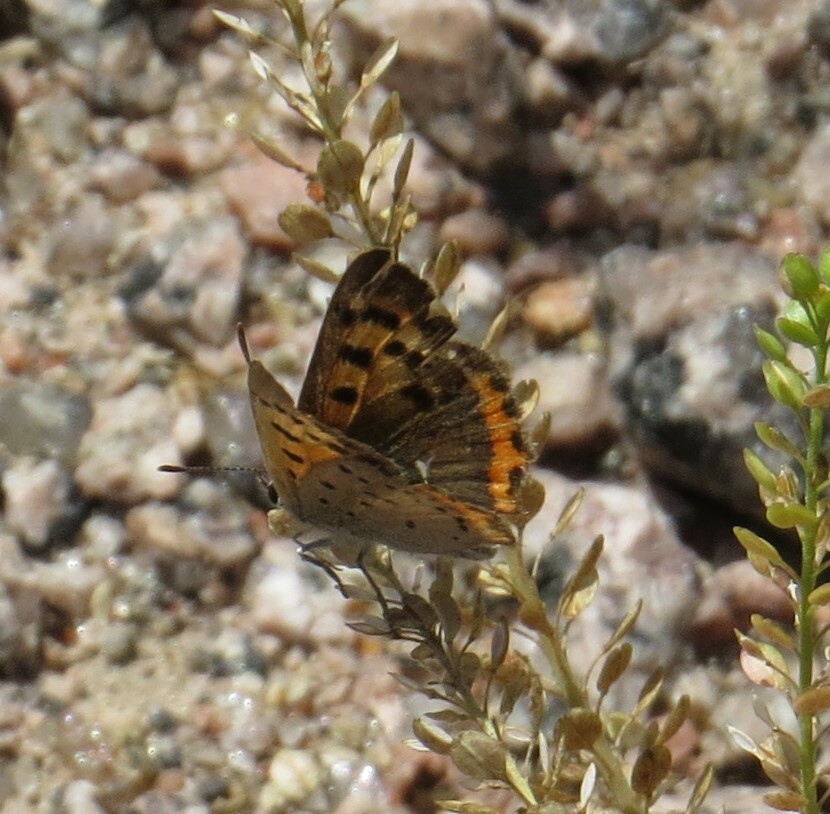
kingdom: Animalia
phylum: Arthropoda
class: Insecta
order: Lepidoptera
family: Lycaenidae
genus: Lycaena
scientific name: Lycaena hypophlaeas
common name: American copper
